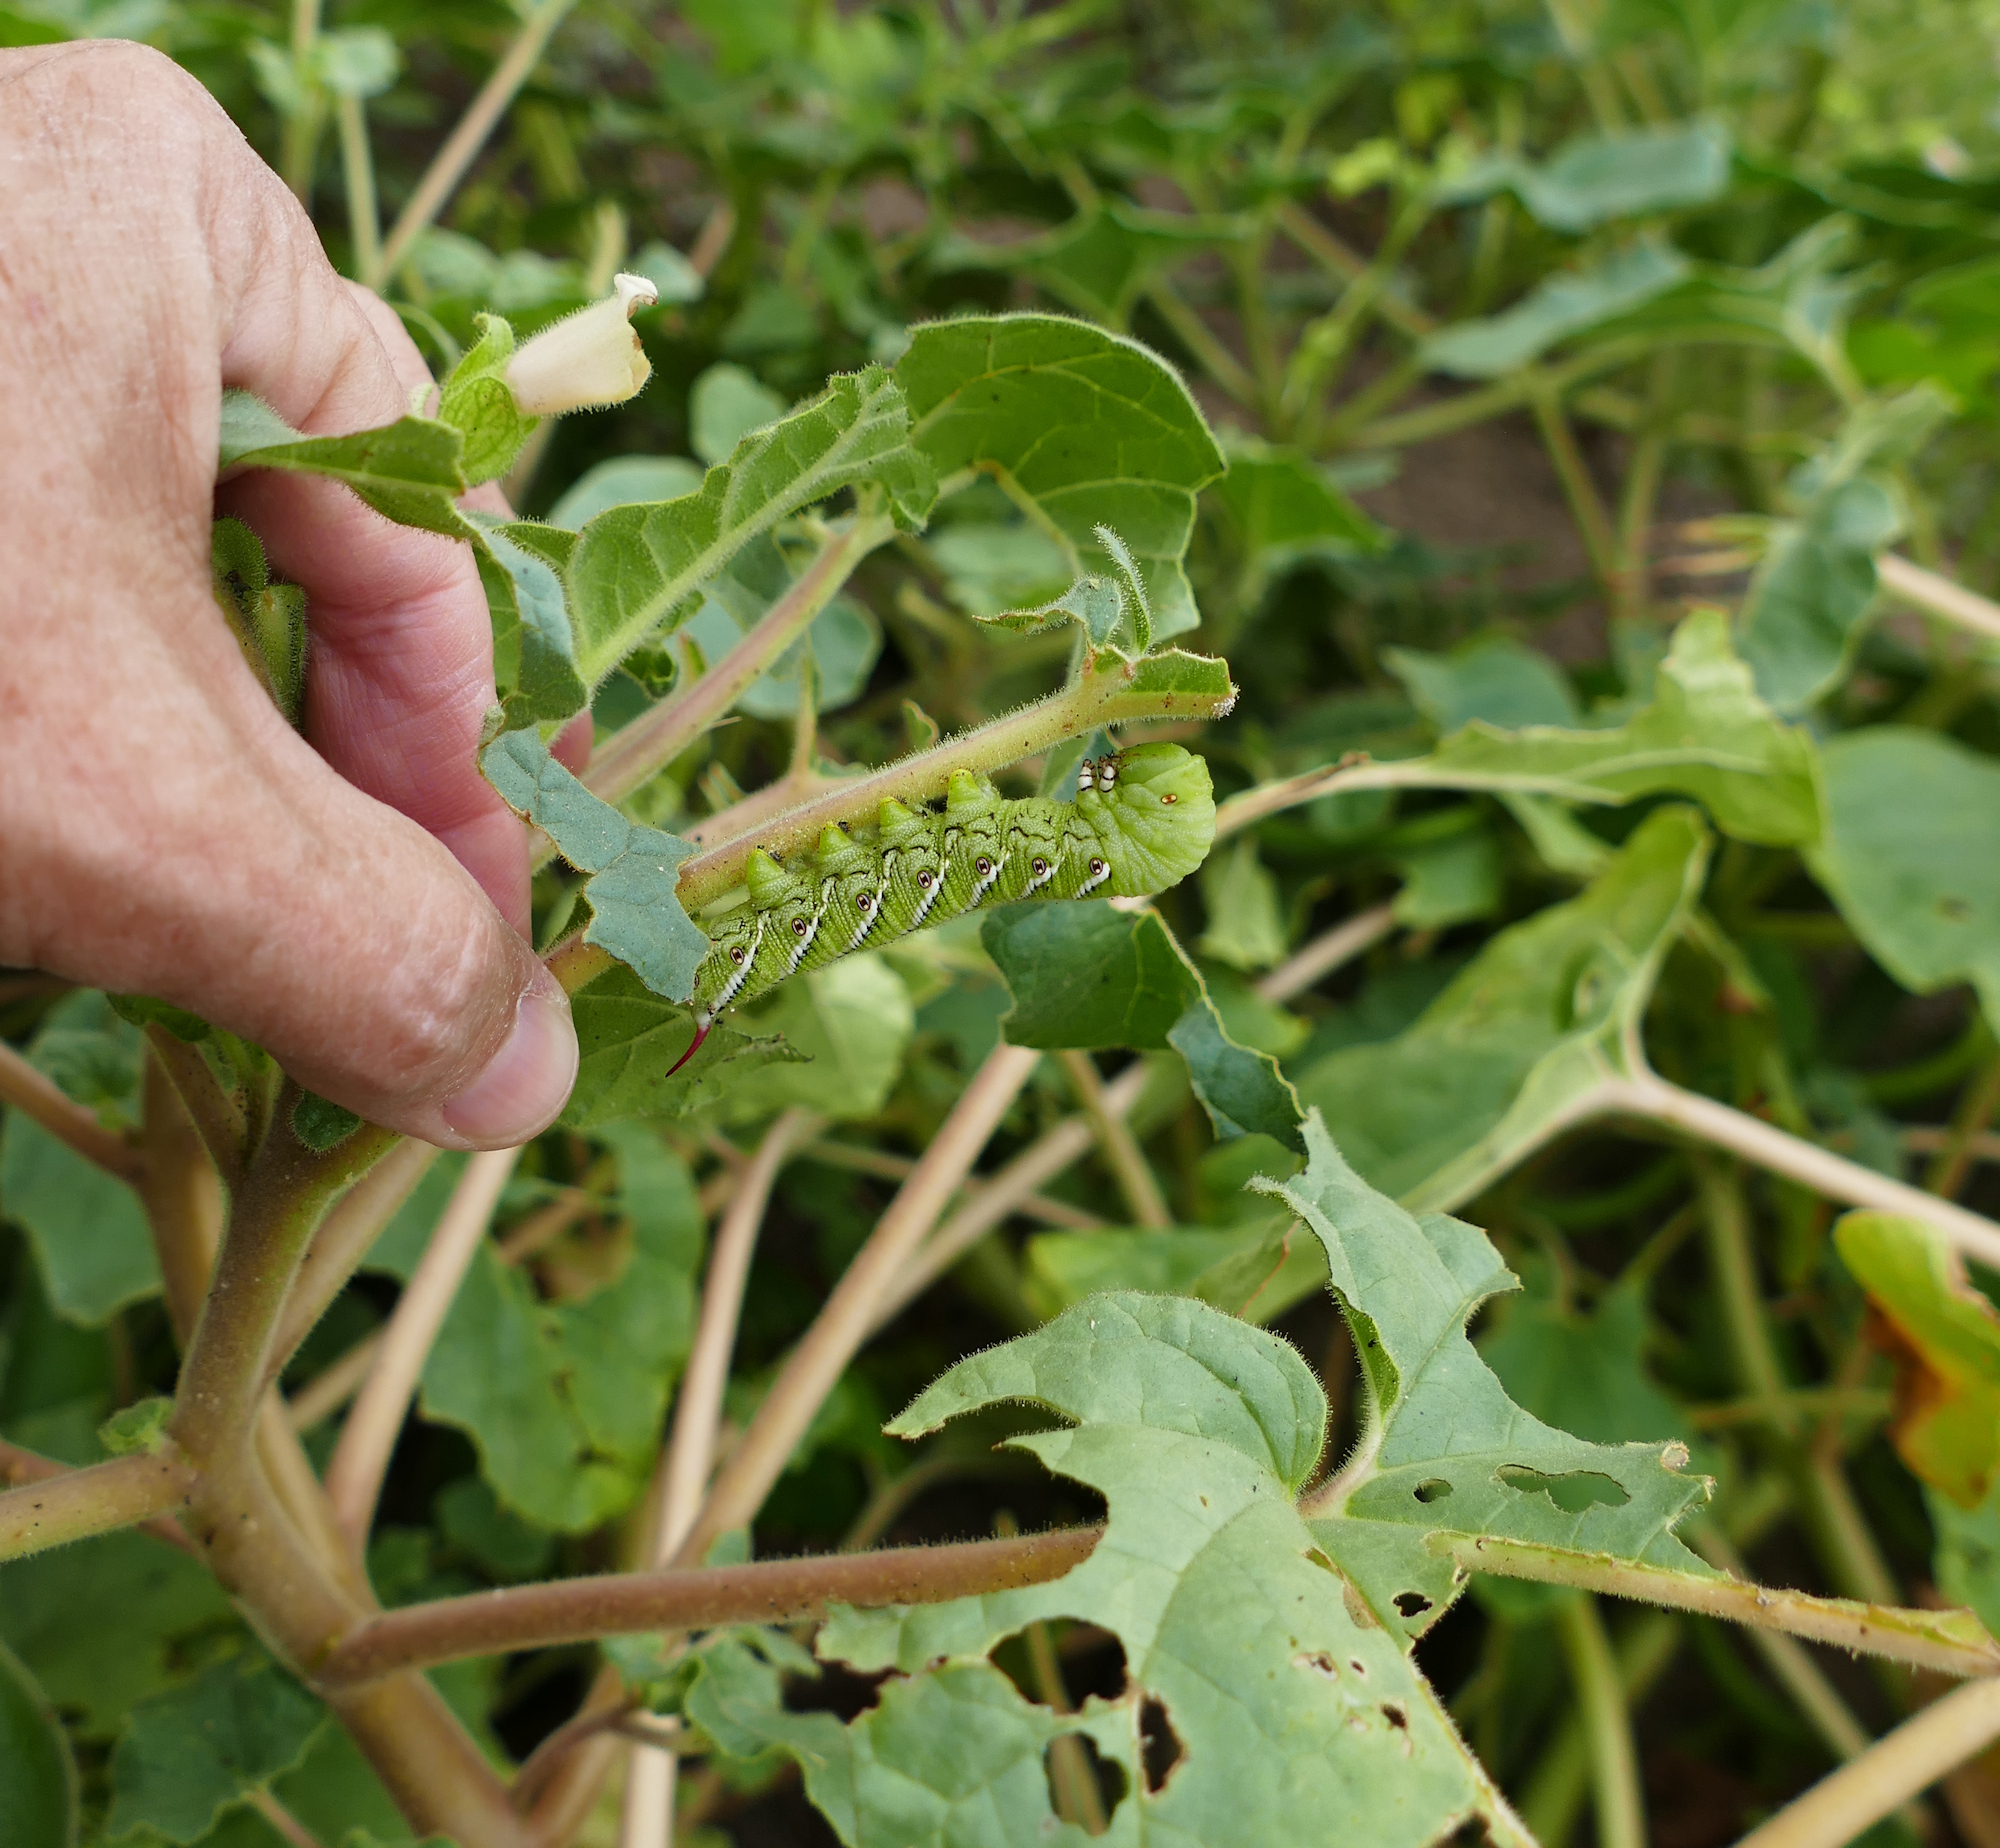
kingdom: Animalia
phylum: Arthropoda
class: Insecta
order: Lepidoptera
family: Sphingidae
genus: Manduca
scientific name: Manduca sexta
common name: Carolina sphinx
